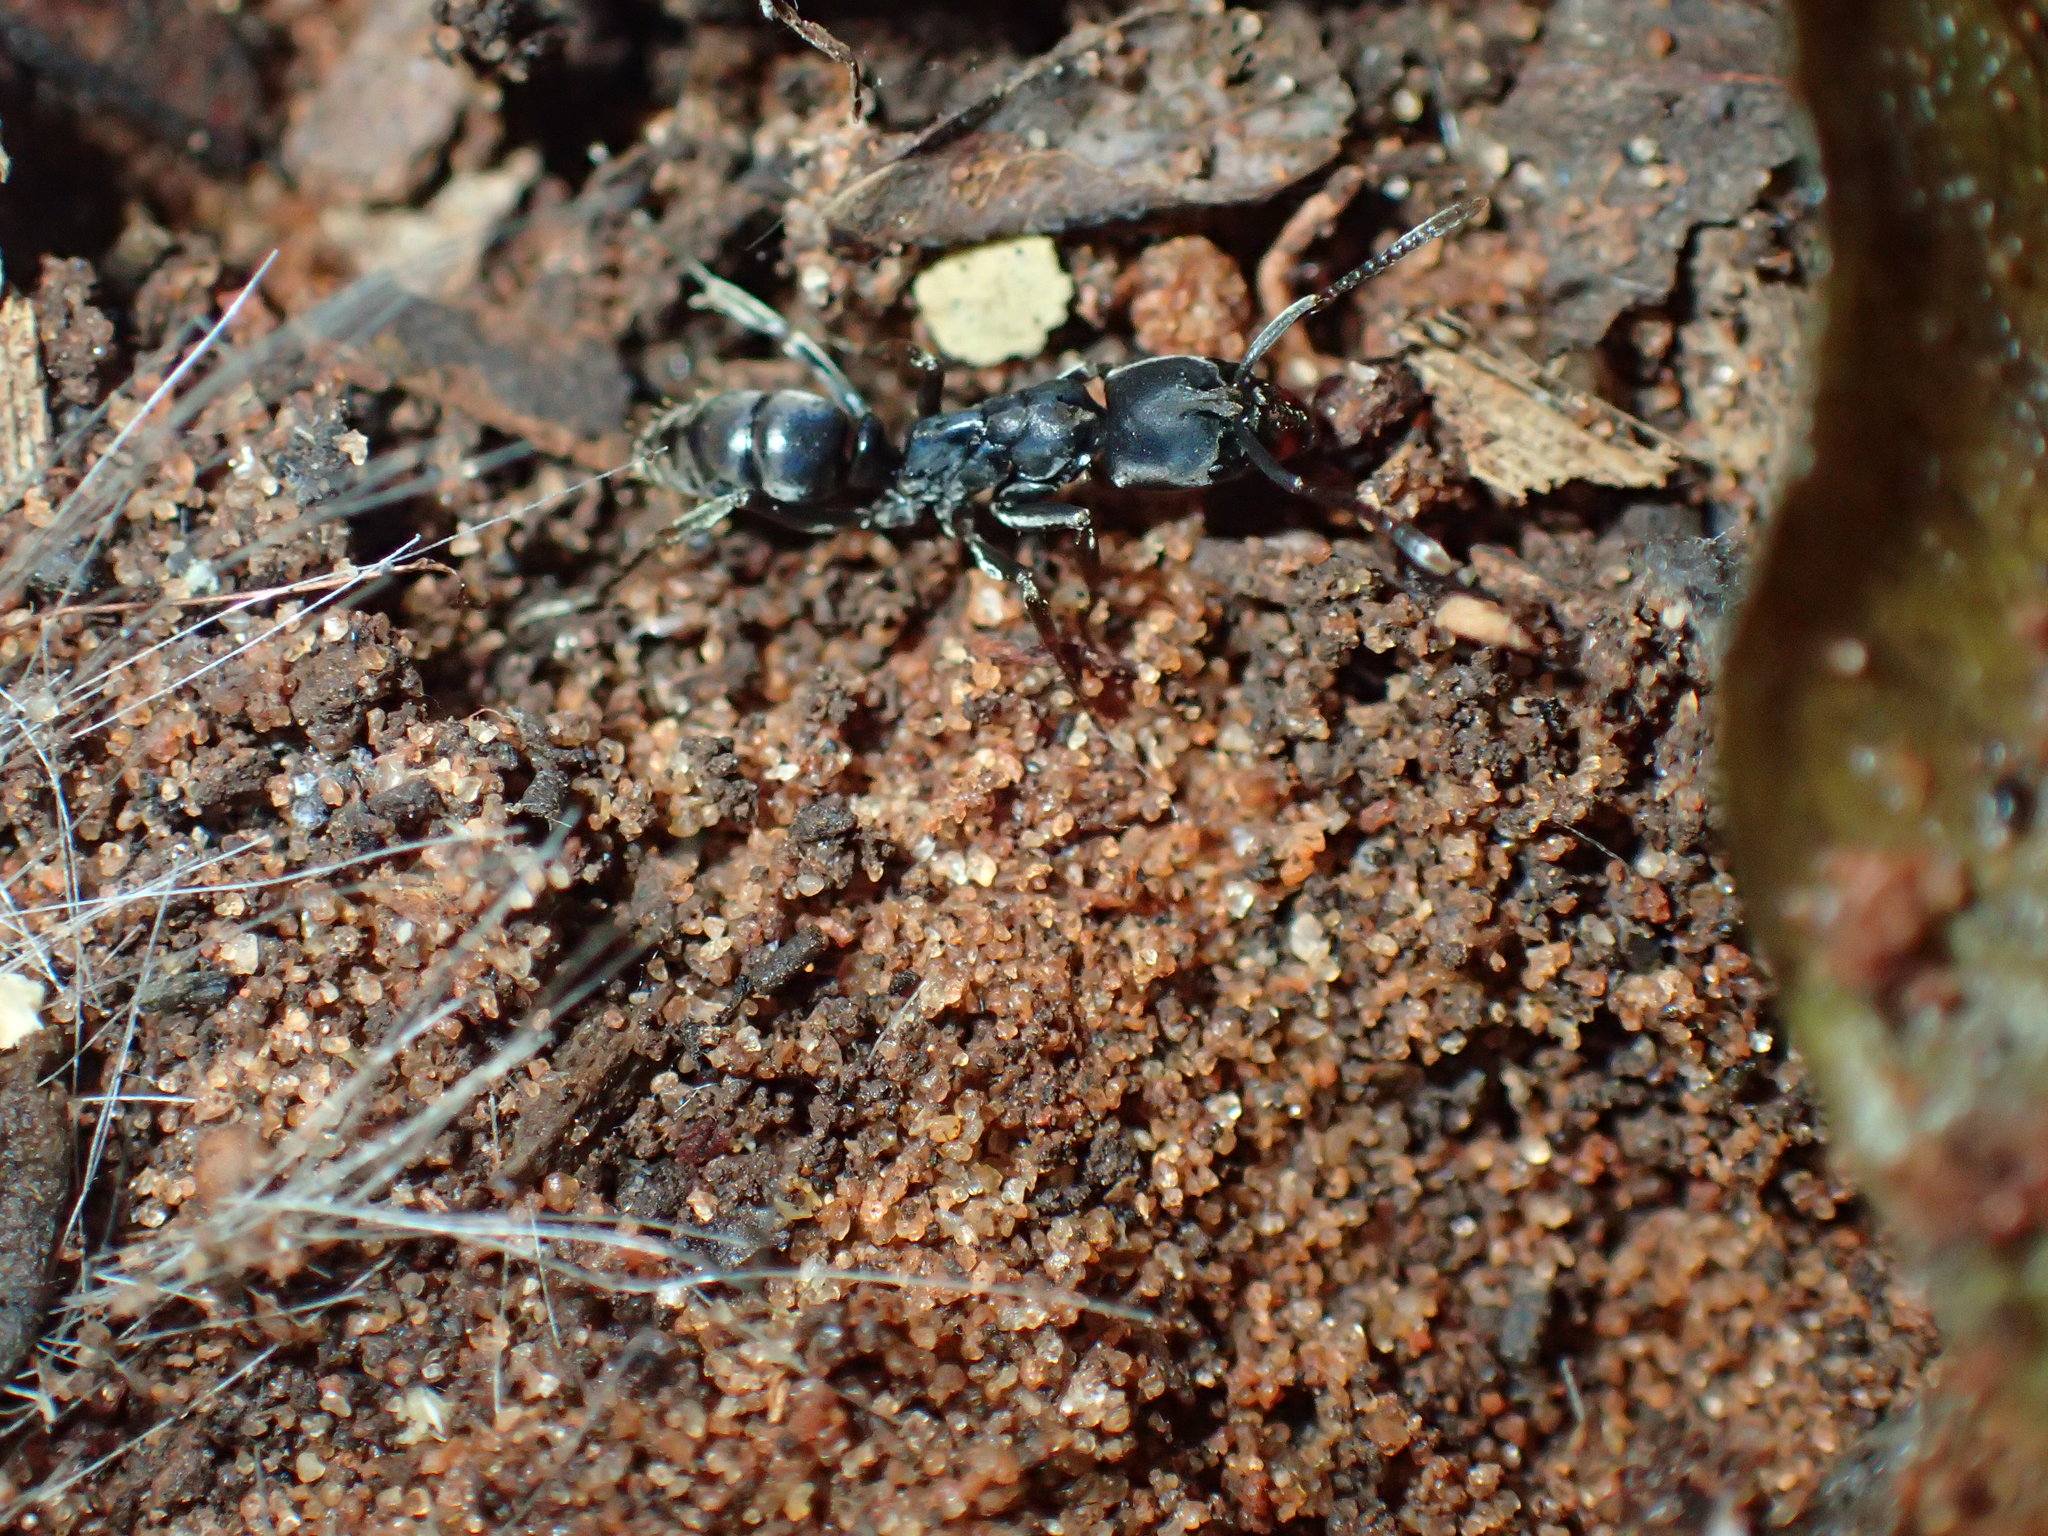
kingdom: Animalia
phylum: Arthropoda
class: Insecta
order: Hymenoptera
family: Formicidae
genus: Mesoponera
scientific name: Mesoponera caffraria
